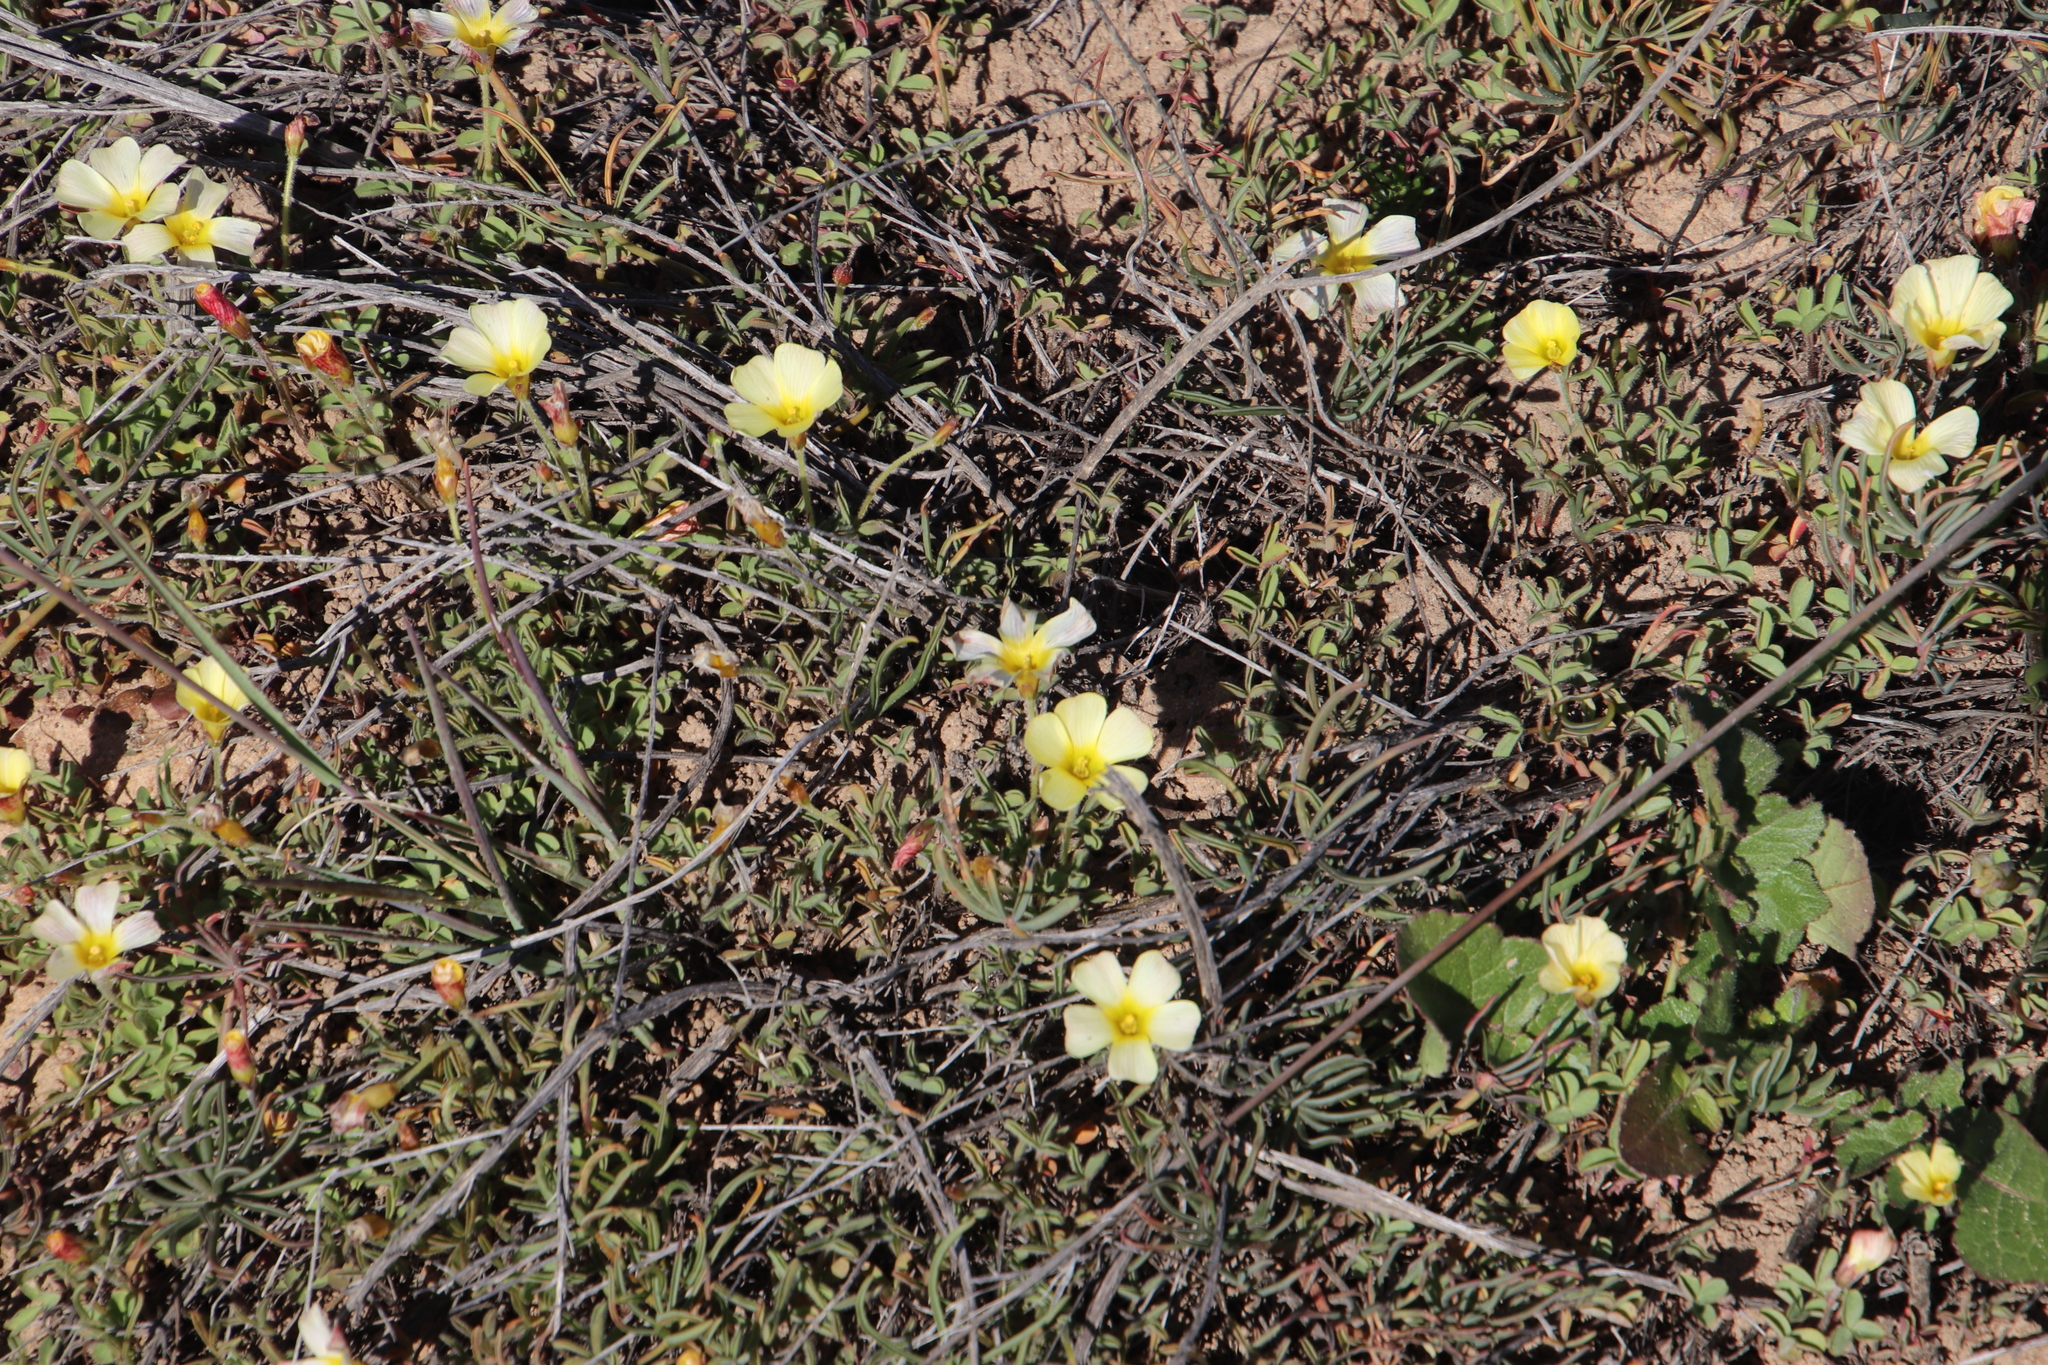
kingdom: Plantae
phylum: Tracheophyta
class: Magnoliopsida
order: Oxalidales
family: Oxalidaceae
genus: Oxalis
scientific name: Oxalis obtusa
